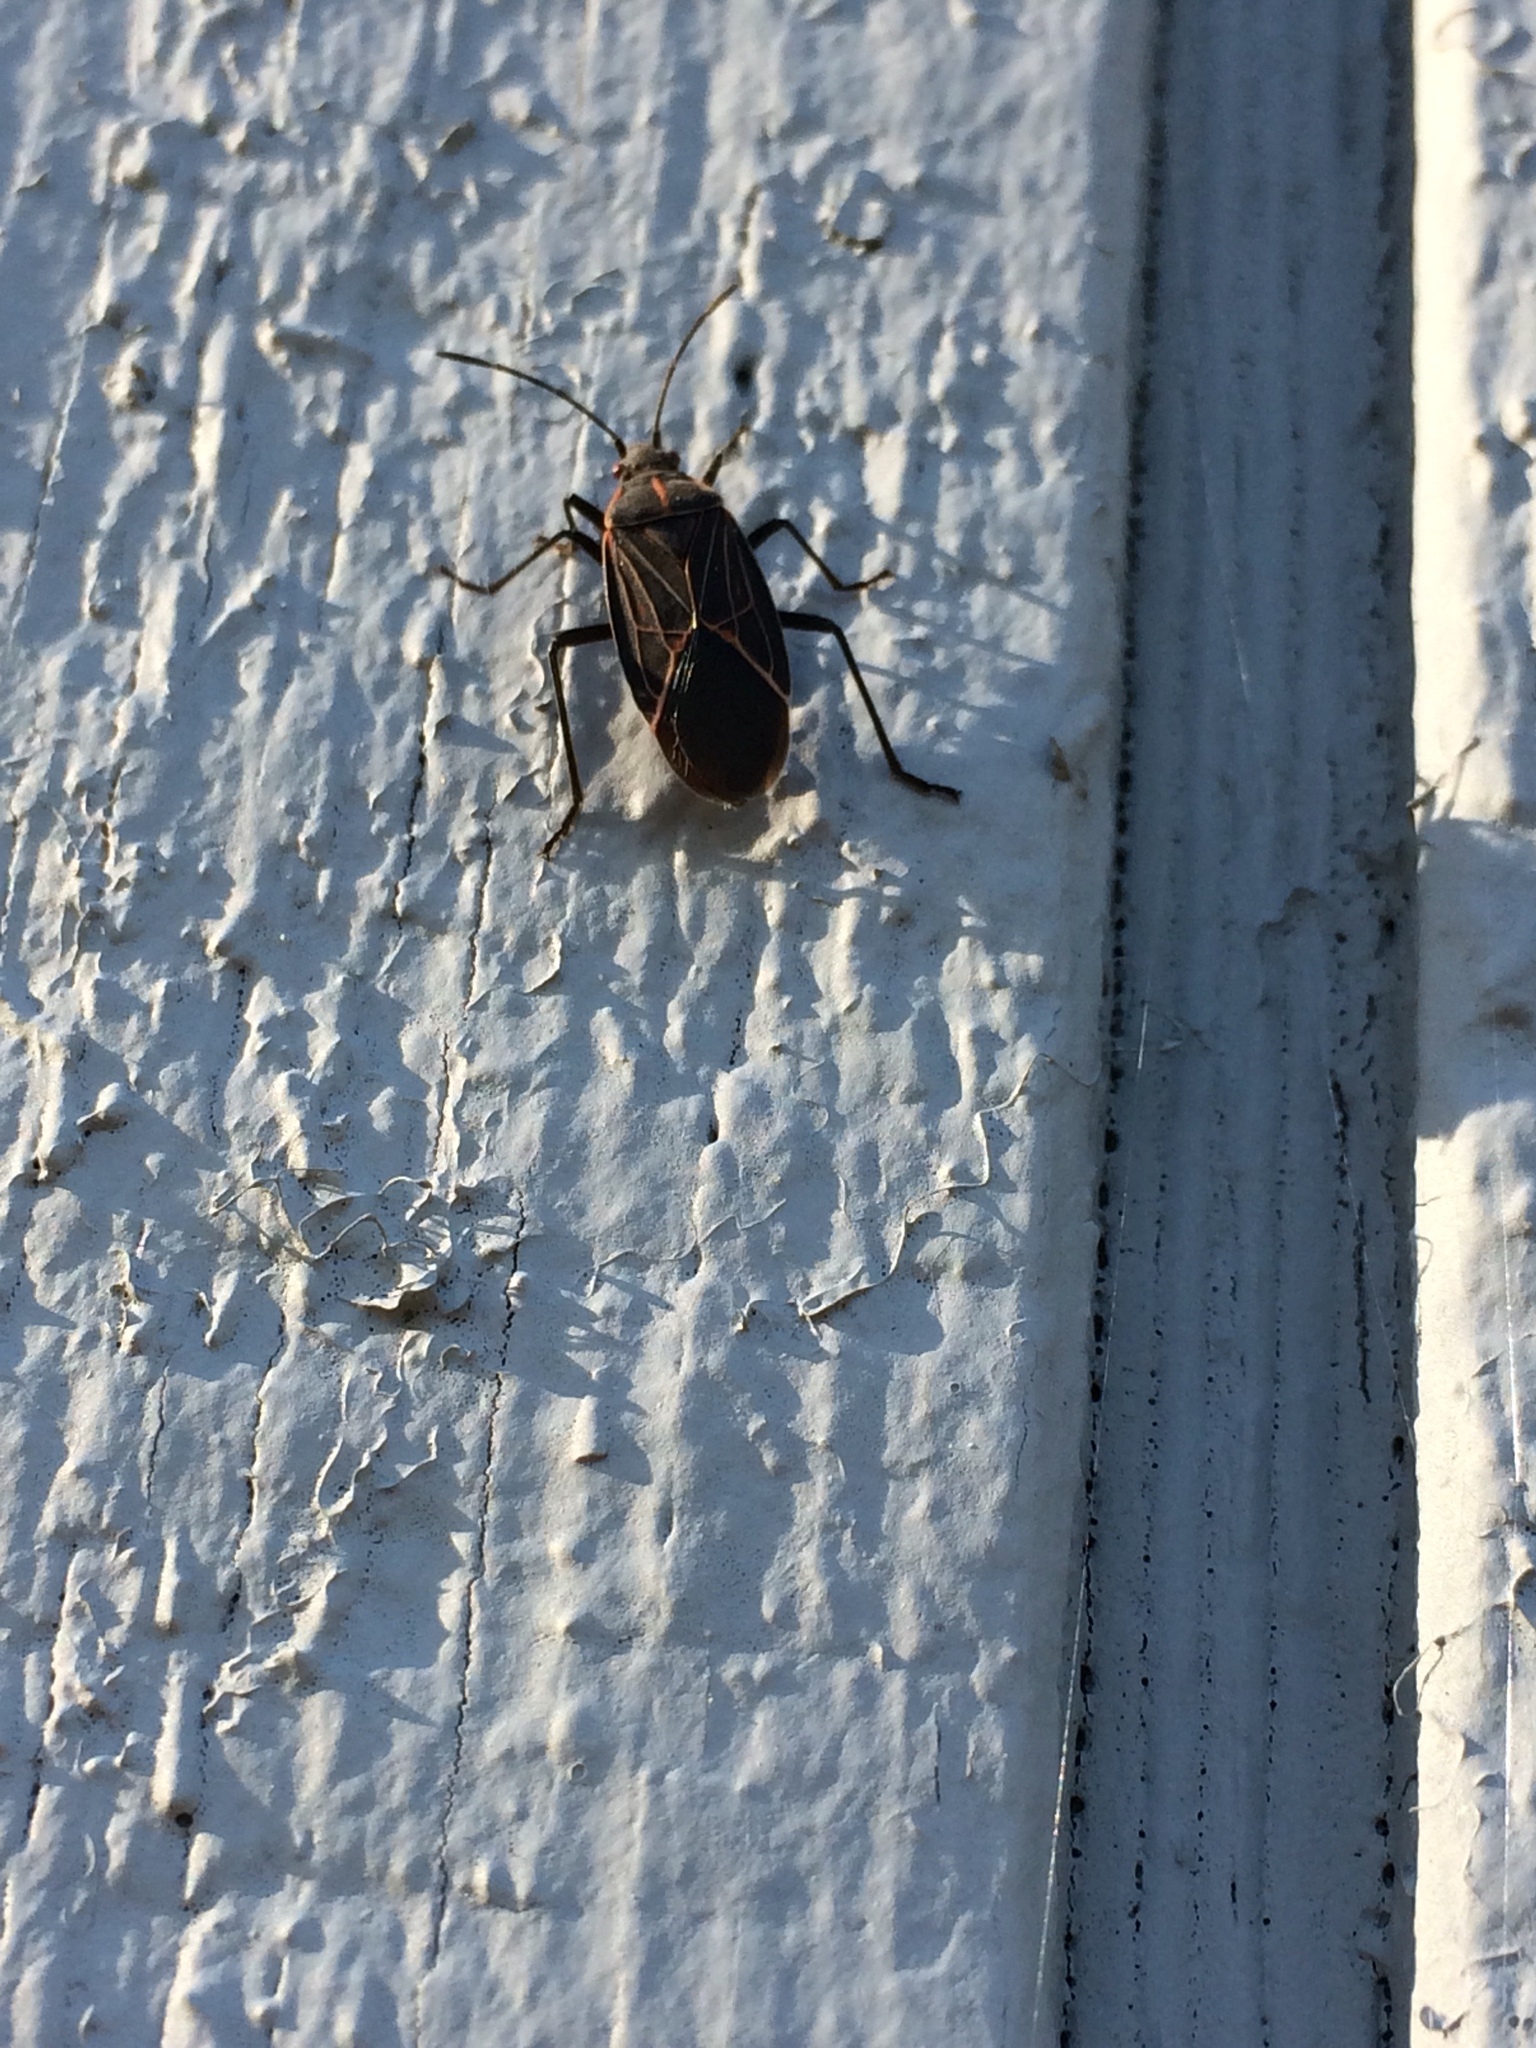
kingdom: Animalia
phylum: Arthropoda
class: Insecta
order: Hemiptera
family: Rhopalidae
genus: Boisea
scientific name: Boisea rubrolineata
